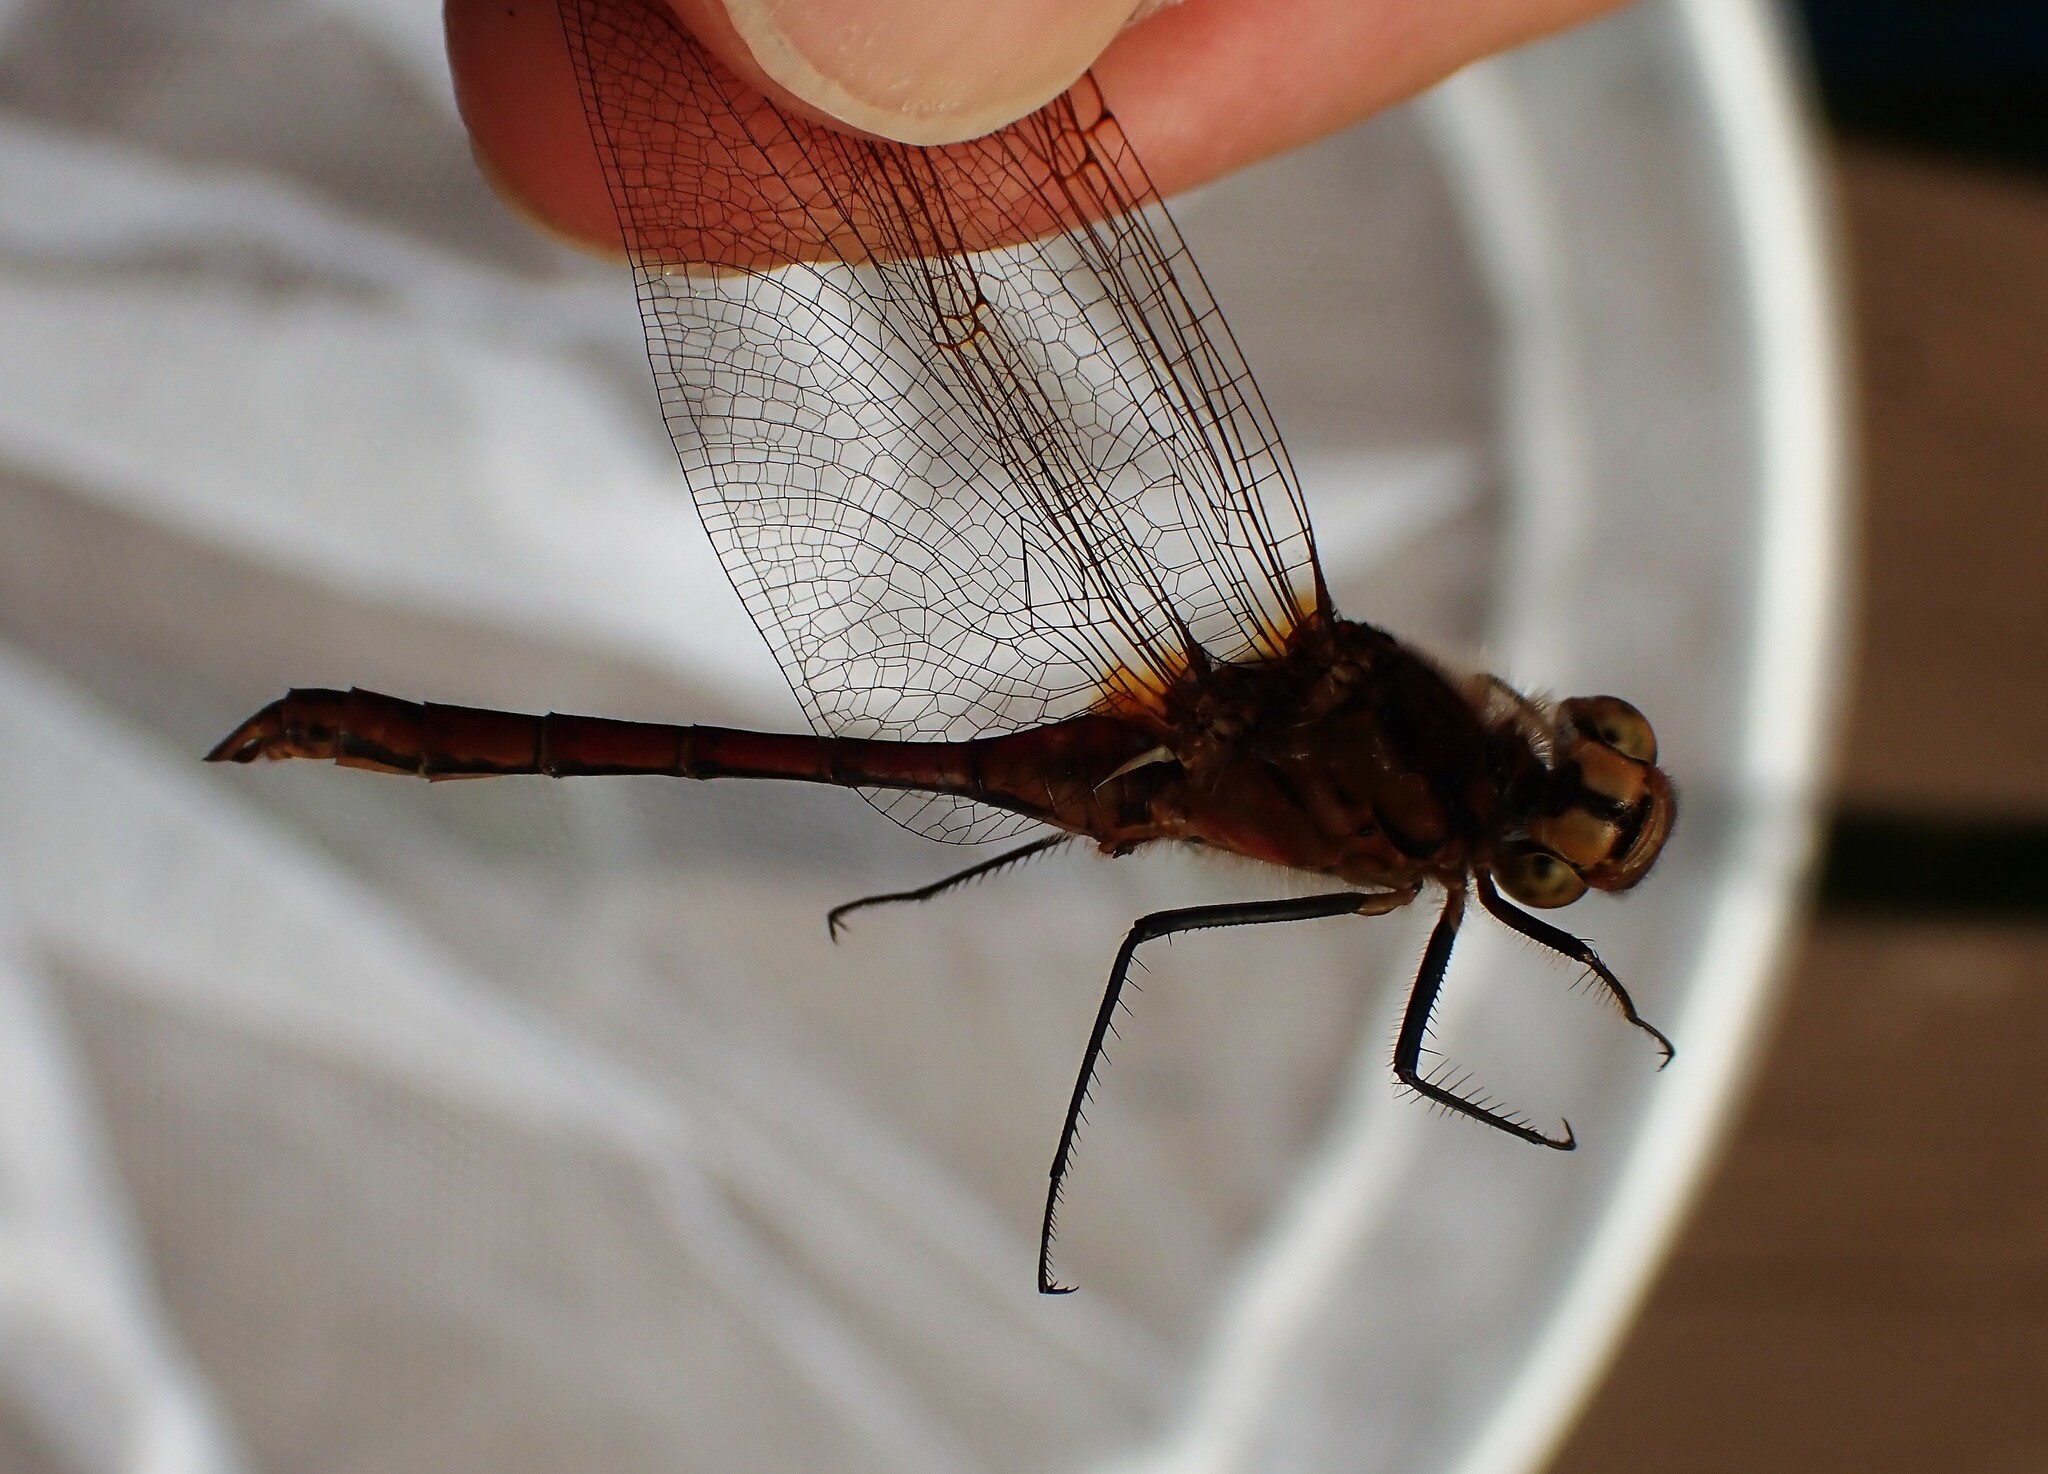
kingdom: Animalia
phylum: Arthropoda
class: Insecta
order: Odonata
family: Libellulidae
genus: Sympetrum
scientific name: Sympetrum costiferum
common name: Saffron-winged meadowhawk
